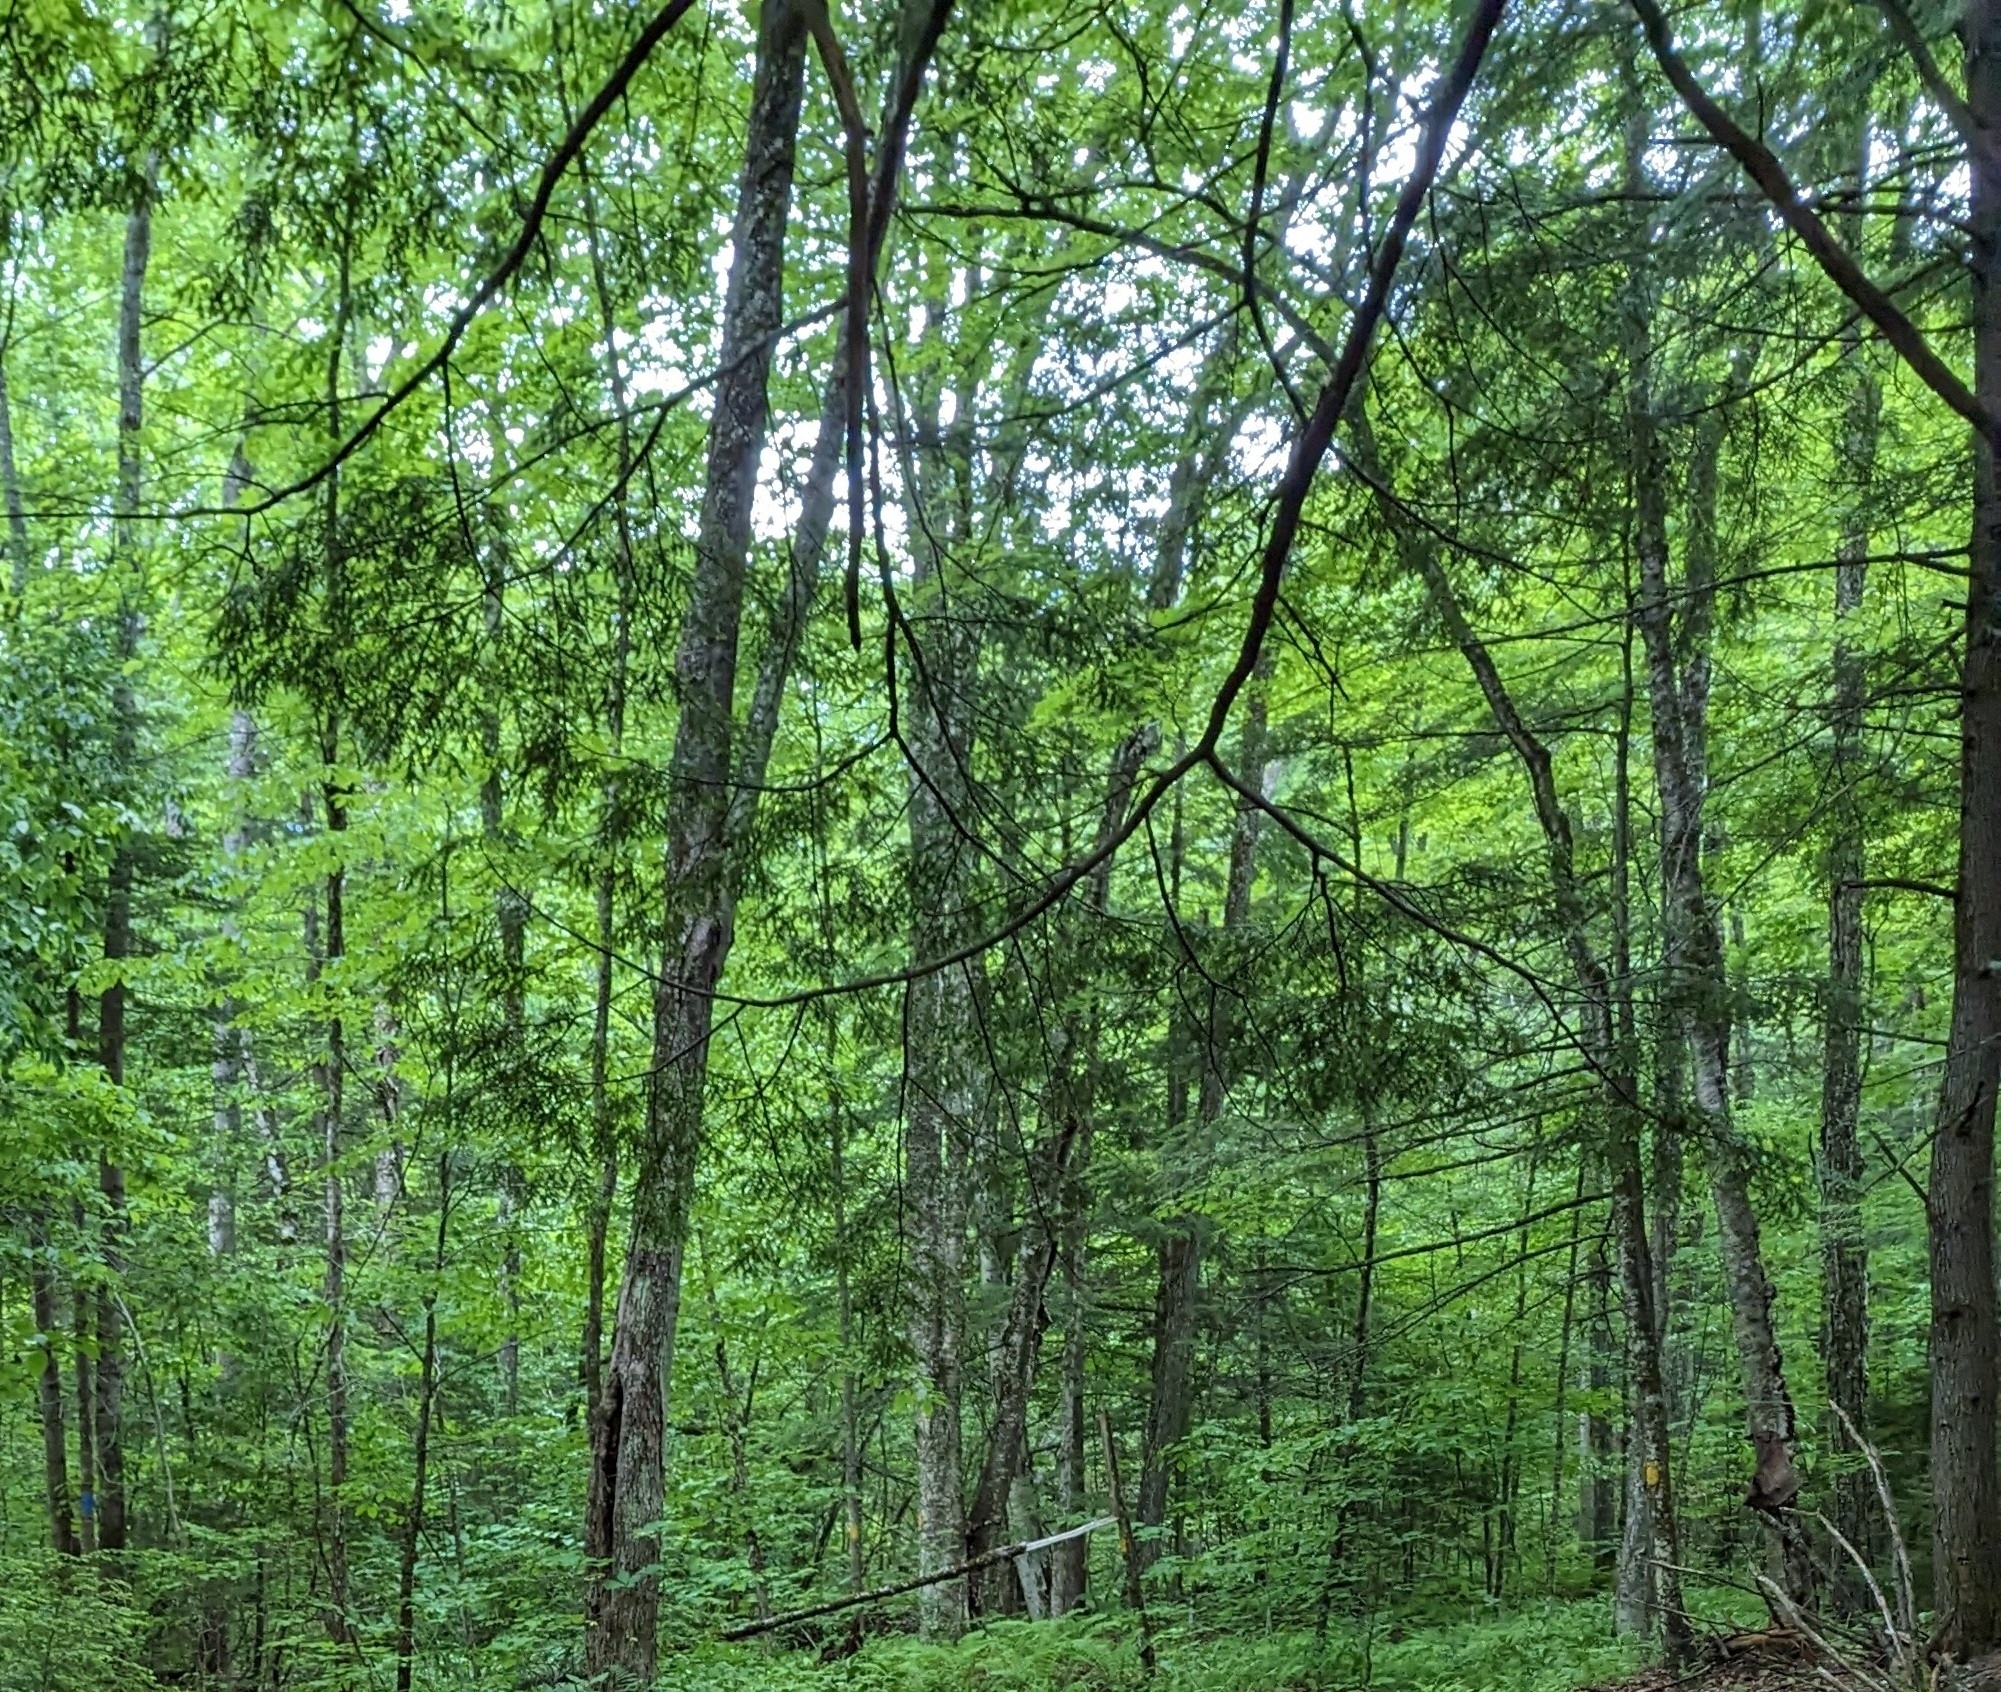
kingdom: Plantae
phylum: Tracheophyta
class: Pinopsida
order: Pinales
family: Pinaceae
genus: Tsuga
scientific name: Tsuga canadensis
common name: Eastern hemlock
